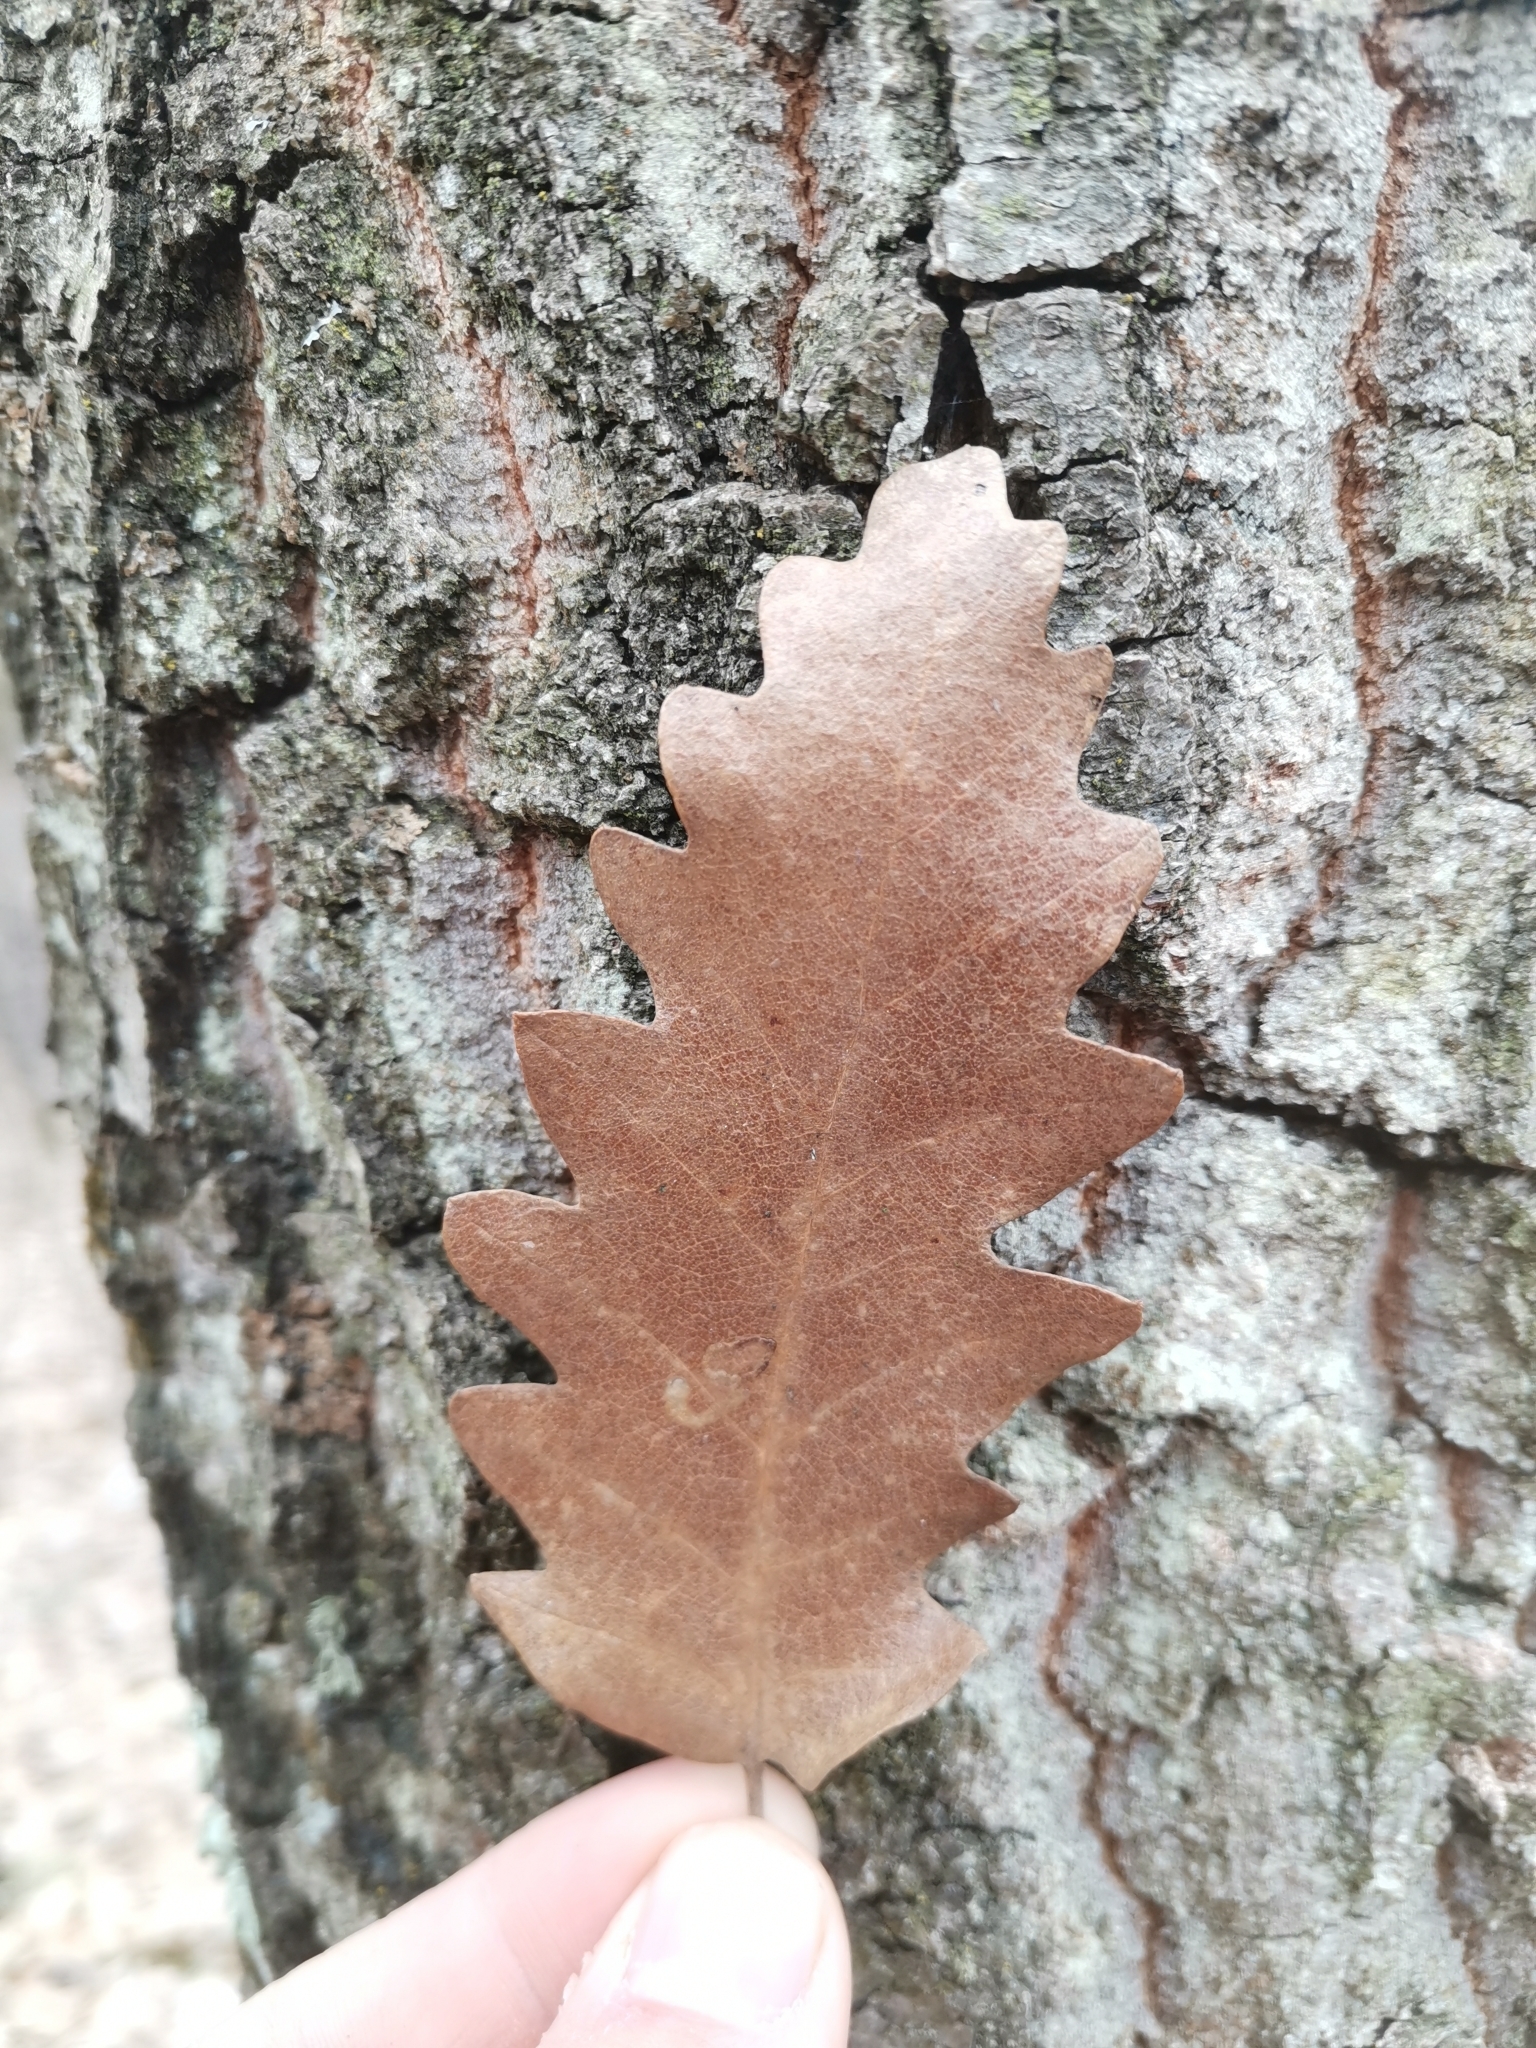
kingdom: Plantae
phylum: Tracheophyta
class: Magnoliopsida
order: Fagales
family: Fagaceae
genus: Quercus
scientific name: Quercus cerris
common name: Turkey oak
